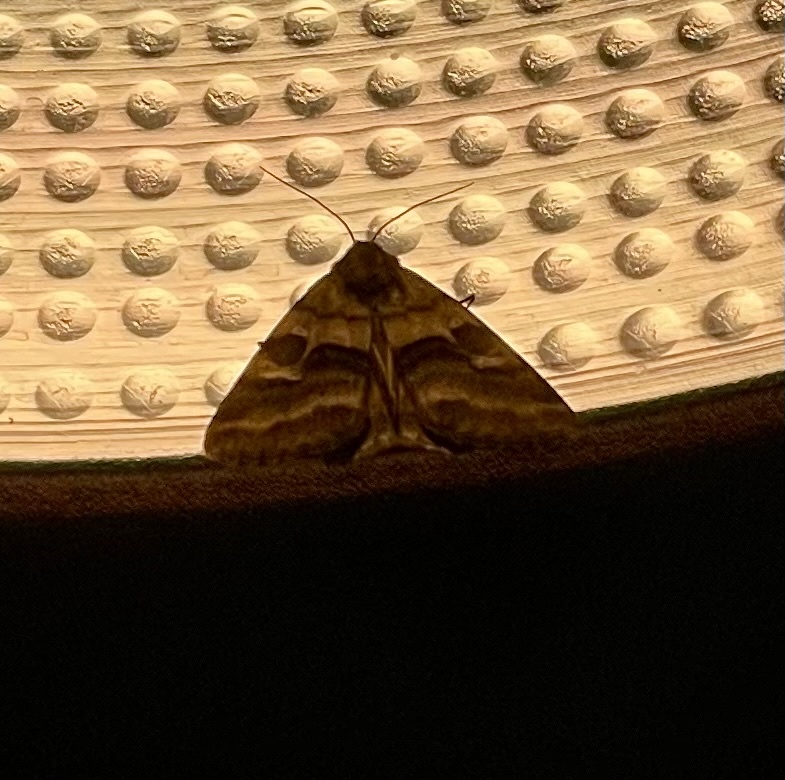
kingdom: Animalia
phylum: Arthropoda
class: Insecta
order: Lepidoptera
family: Noctuidae
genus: Synthymia
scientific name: Synthymia fixa
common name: Goldwing
